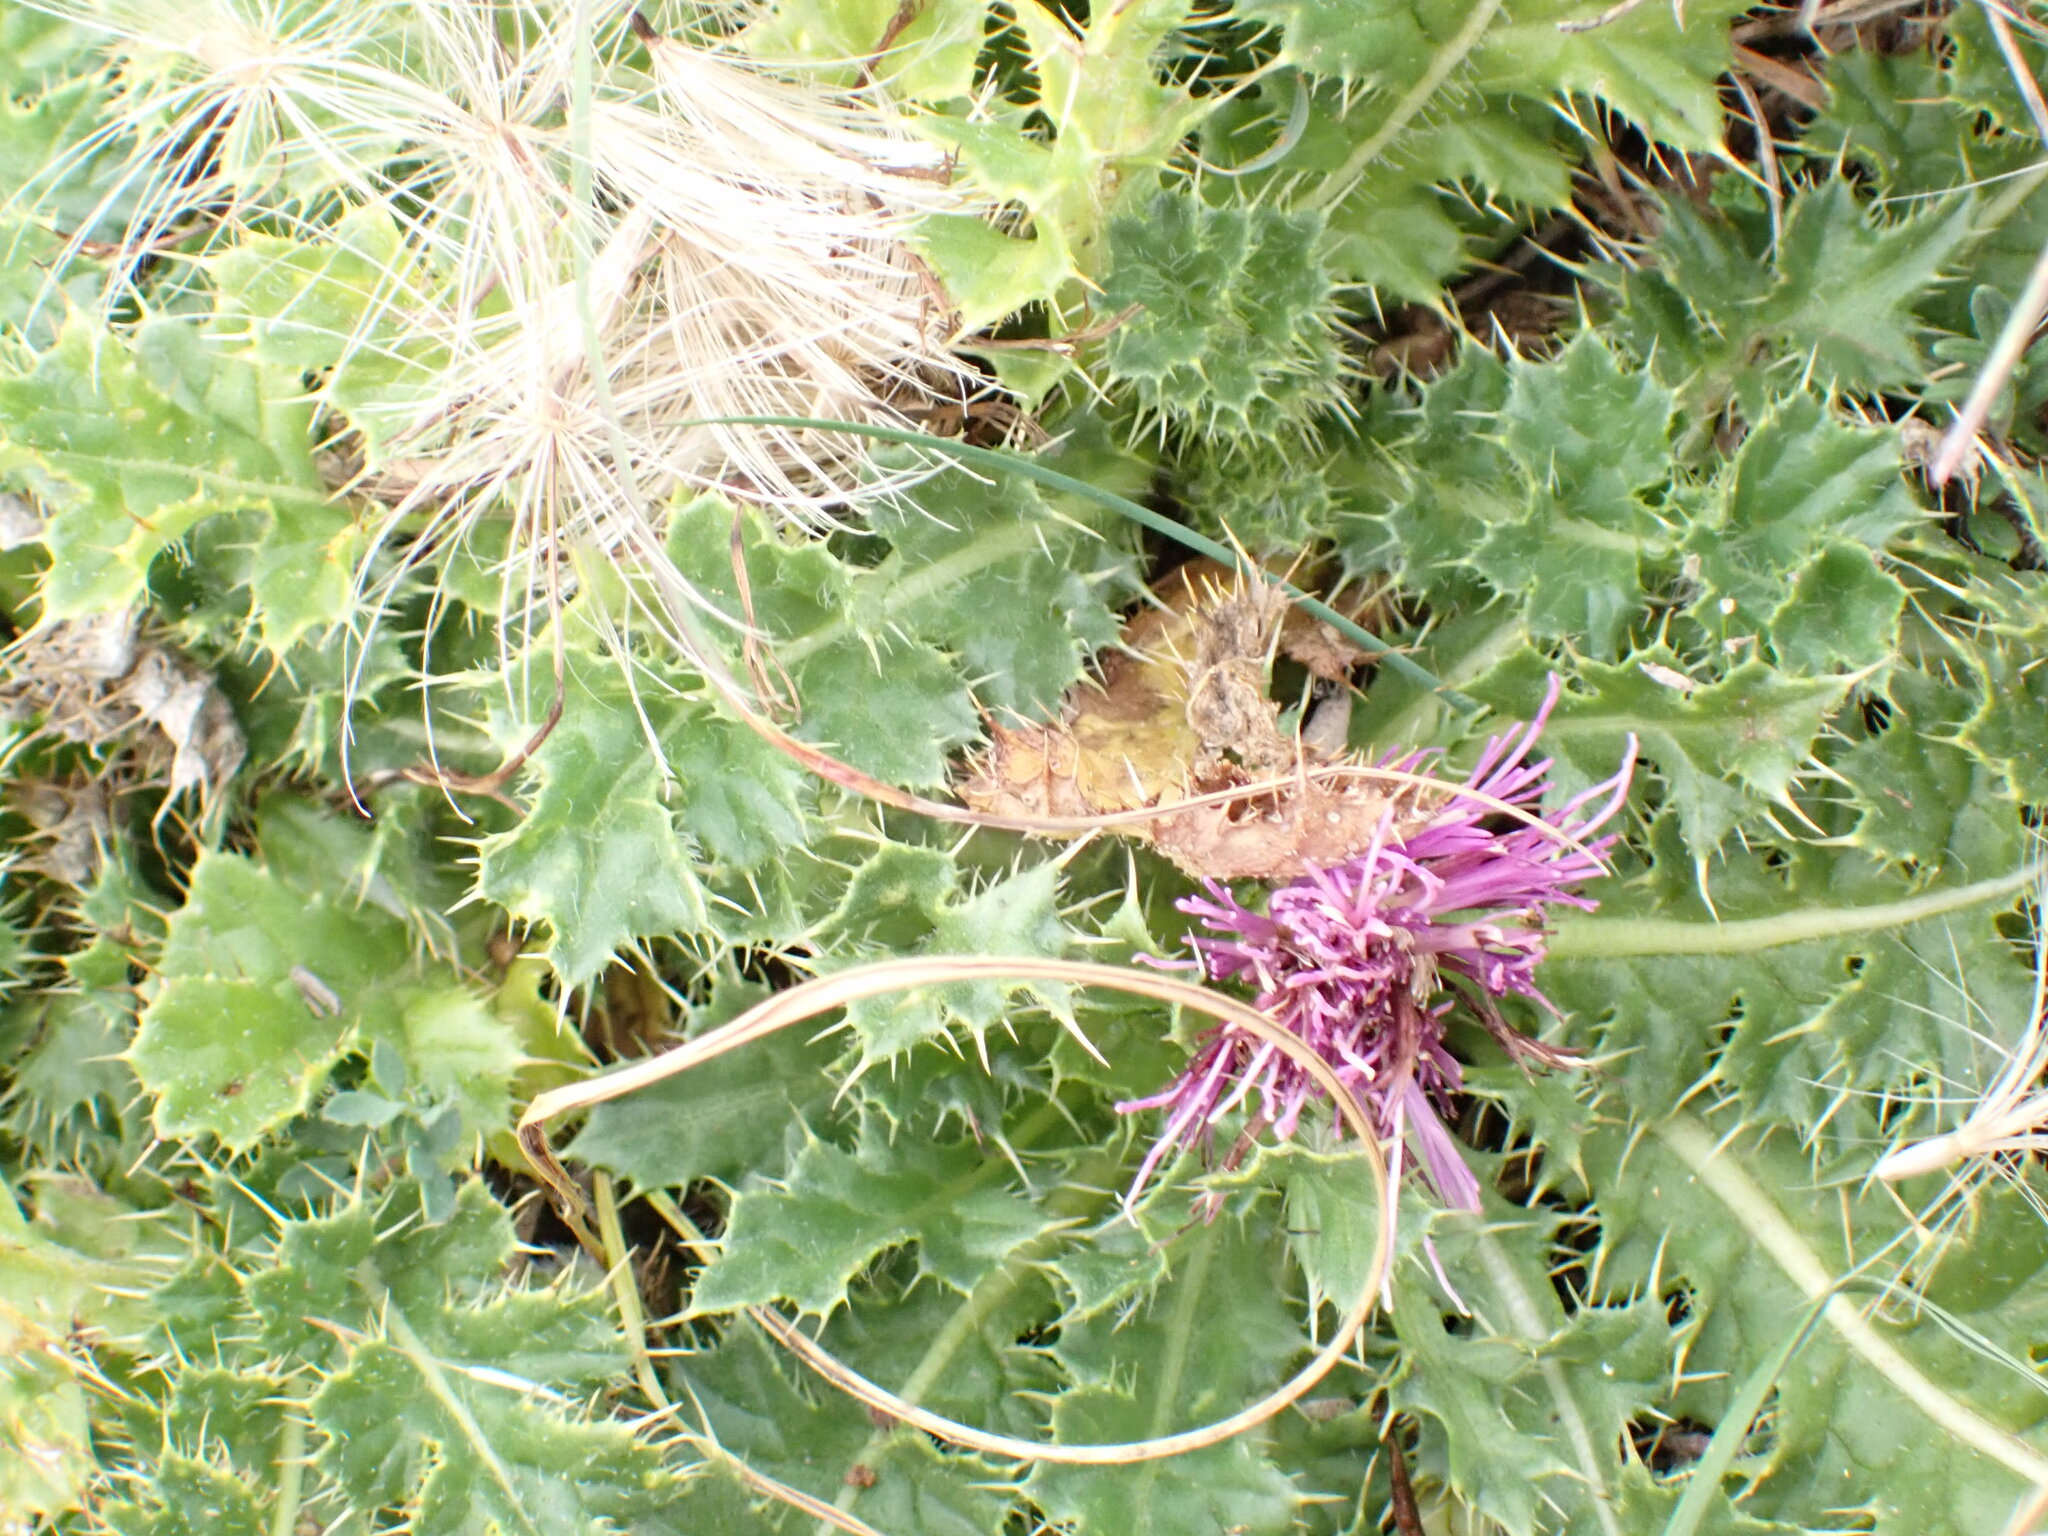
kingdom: Plantae
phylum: Tracheophyta
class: Magnoliopsida
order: Asterales
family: Asteraceae
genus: Cirsium
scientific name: Cirsium acaulon
